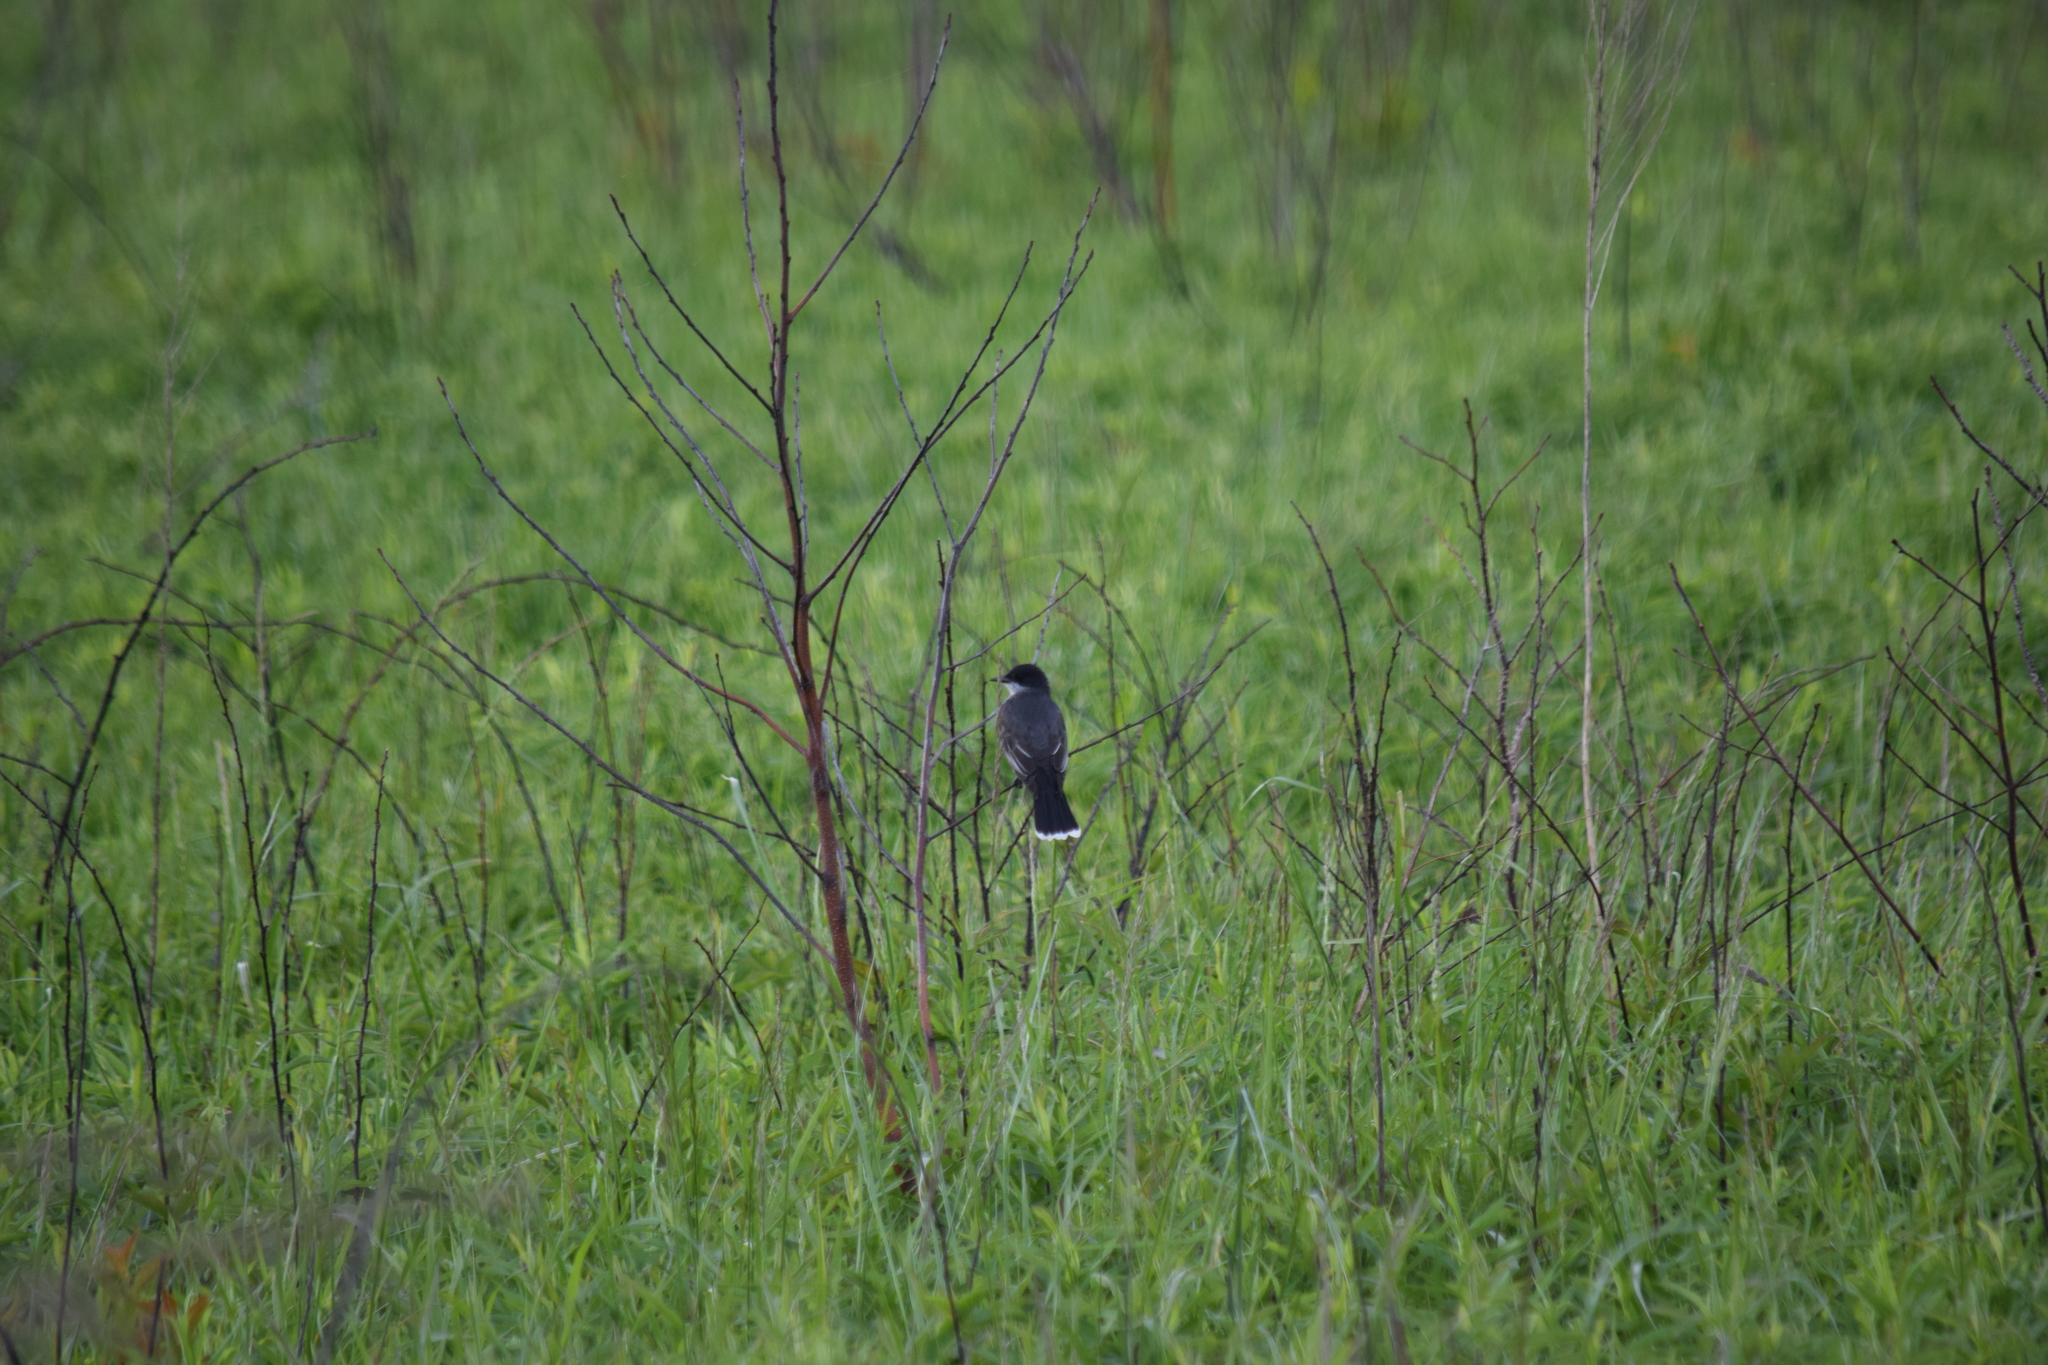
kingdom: Animalia
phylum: Chordata
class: Aves
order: Passeriformes
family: Tyrannidae
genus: Tyrannus
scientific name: Tyrannus tyrannus
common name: Eastern kingbird
